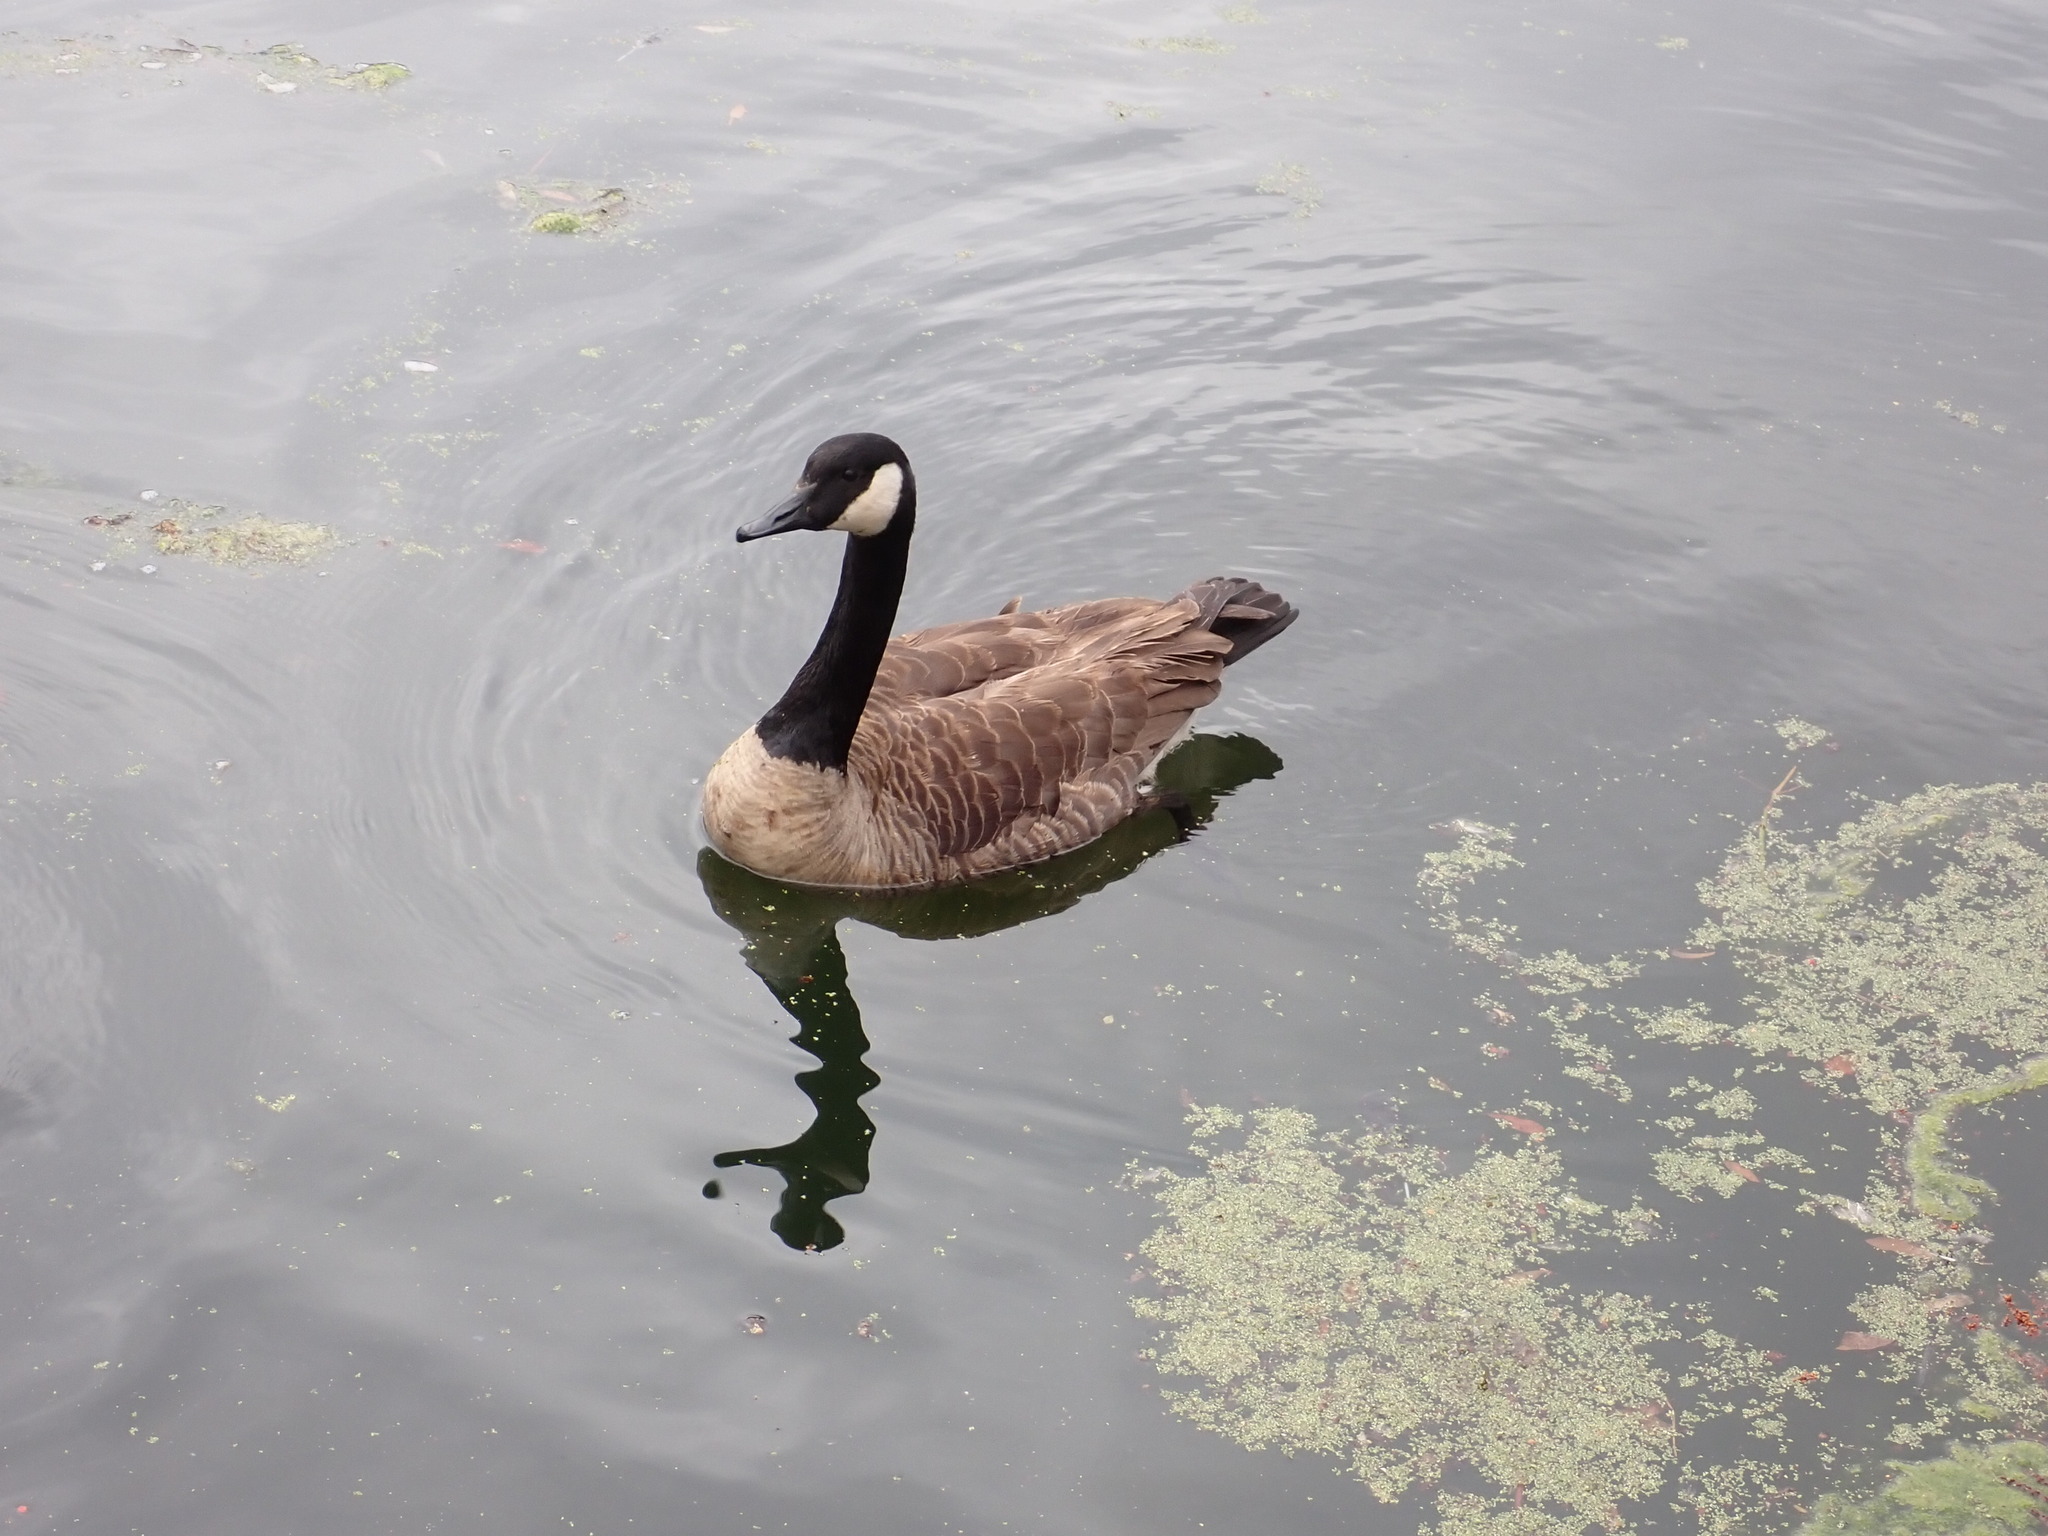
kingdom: Animalia
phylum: Chordata
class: Aves
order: Anseriformes
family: Anatidae
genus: Branta
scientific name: Branta canadensis
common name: Canada goose
